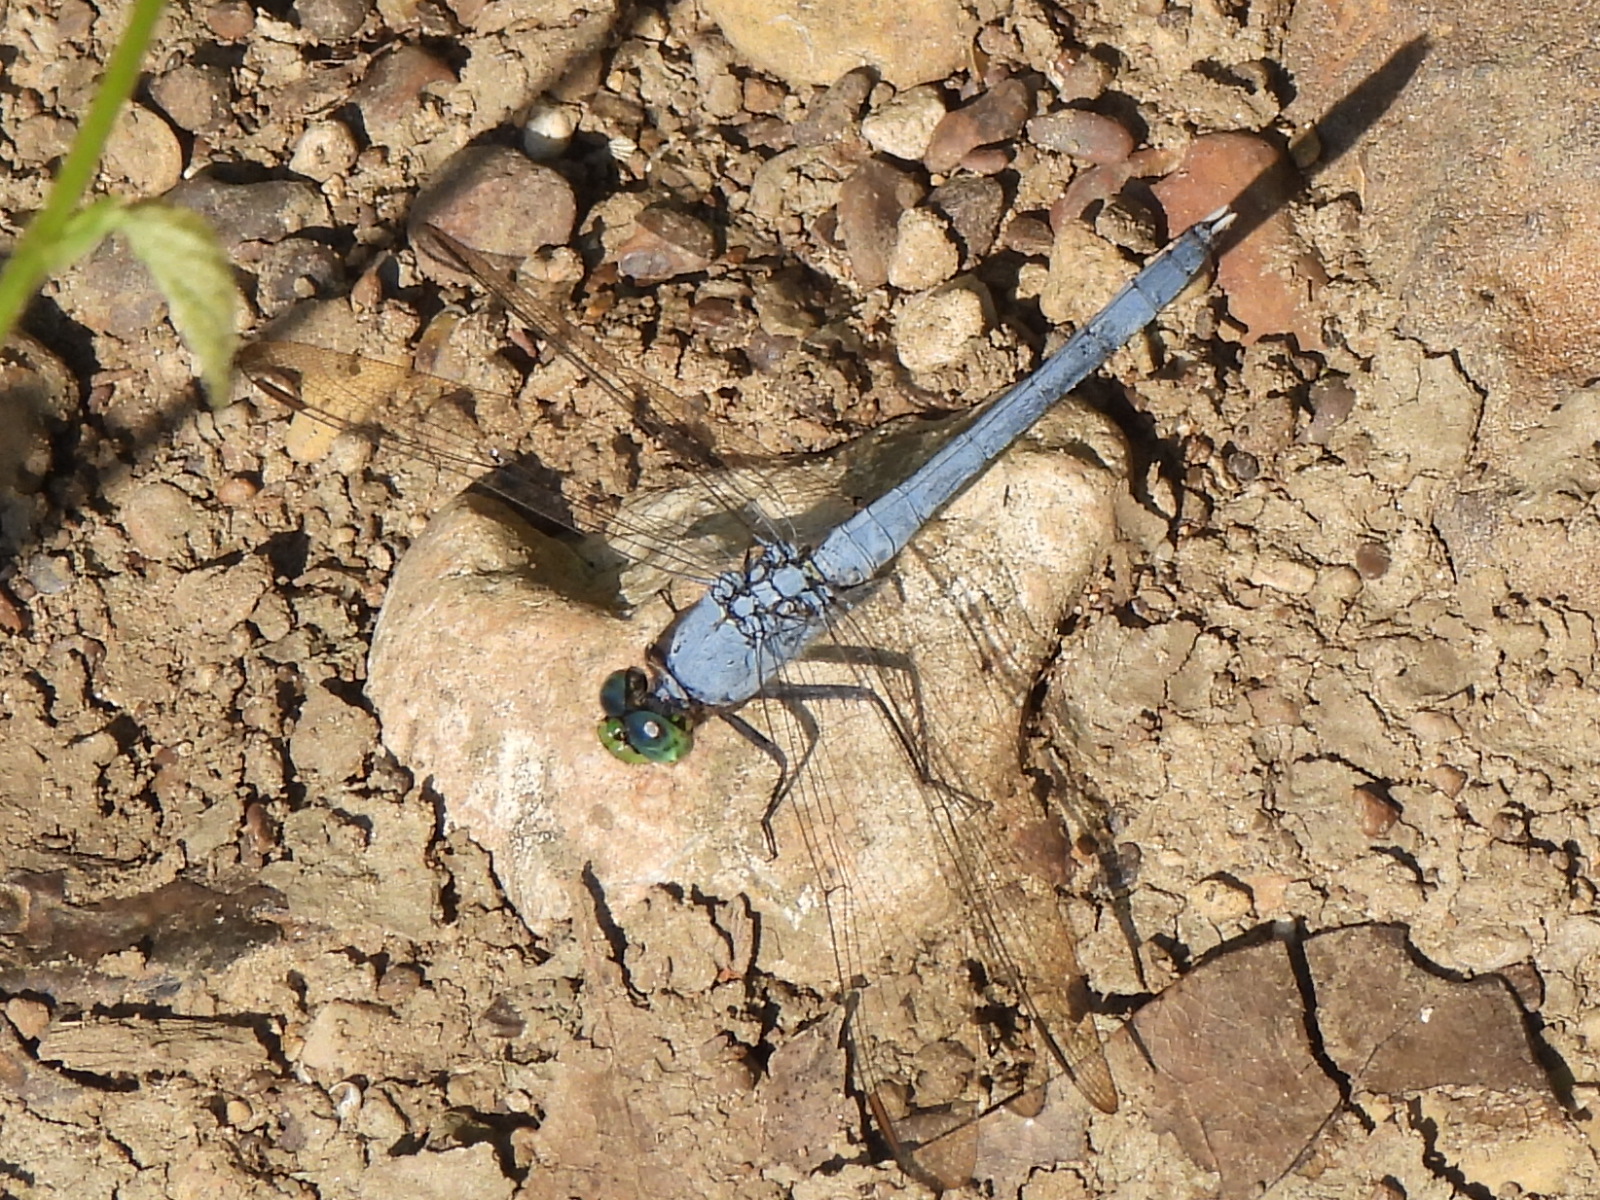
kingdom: Animalia
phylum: Arthropoda
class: Insecta
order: Odonata
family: Libellulidae
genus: Erythemis
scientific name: Erythemis simplicicollis
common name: Eastern pondhawk
